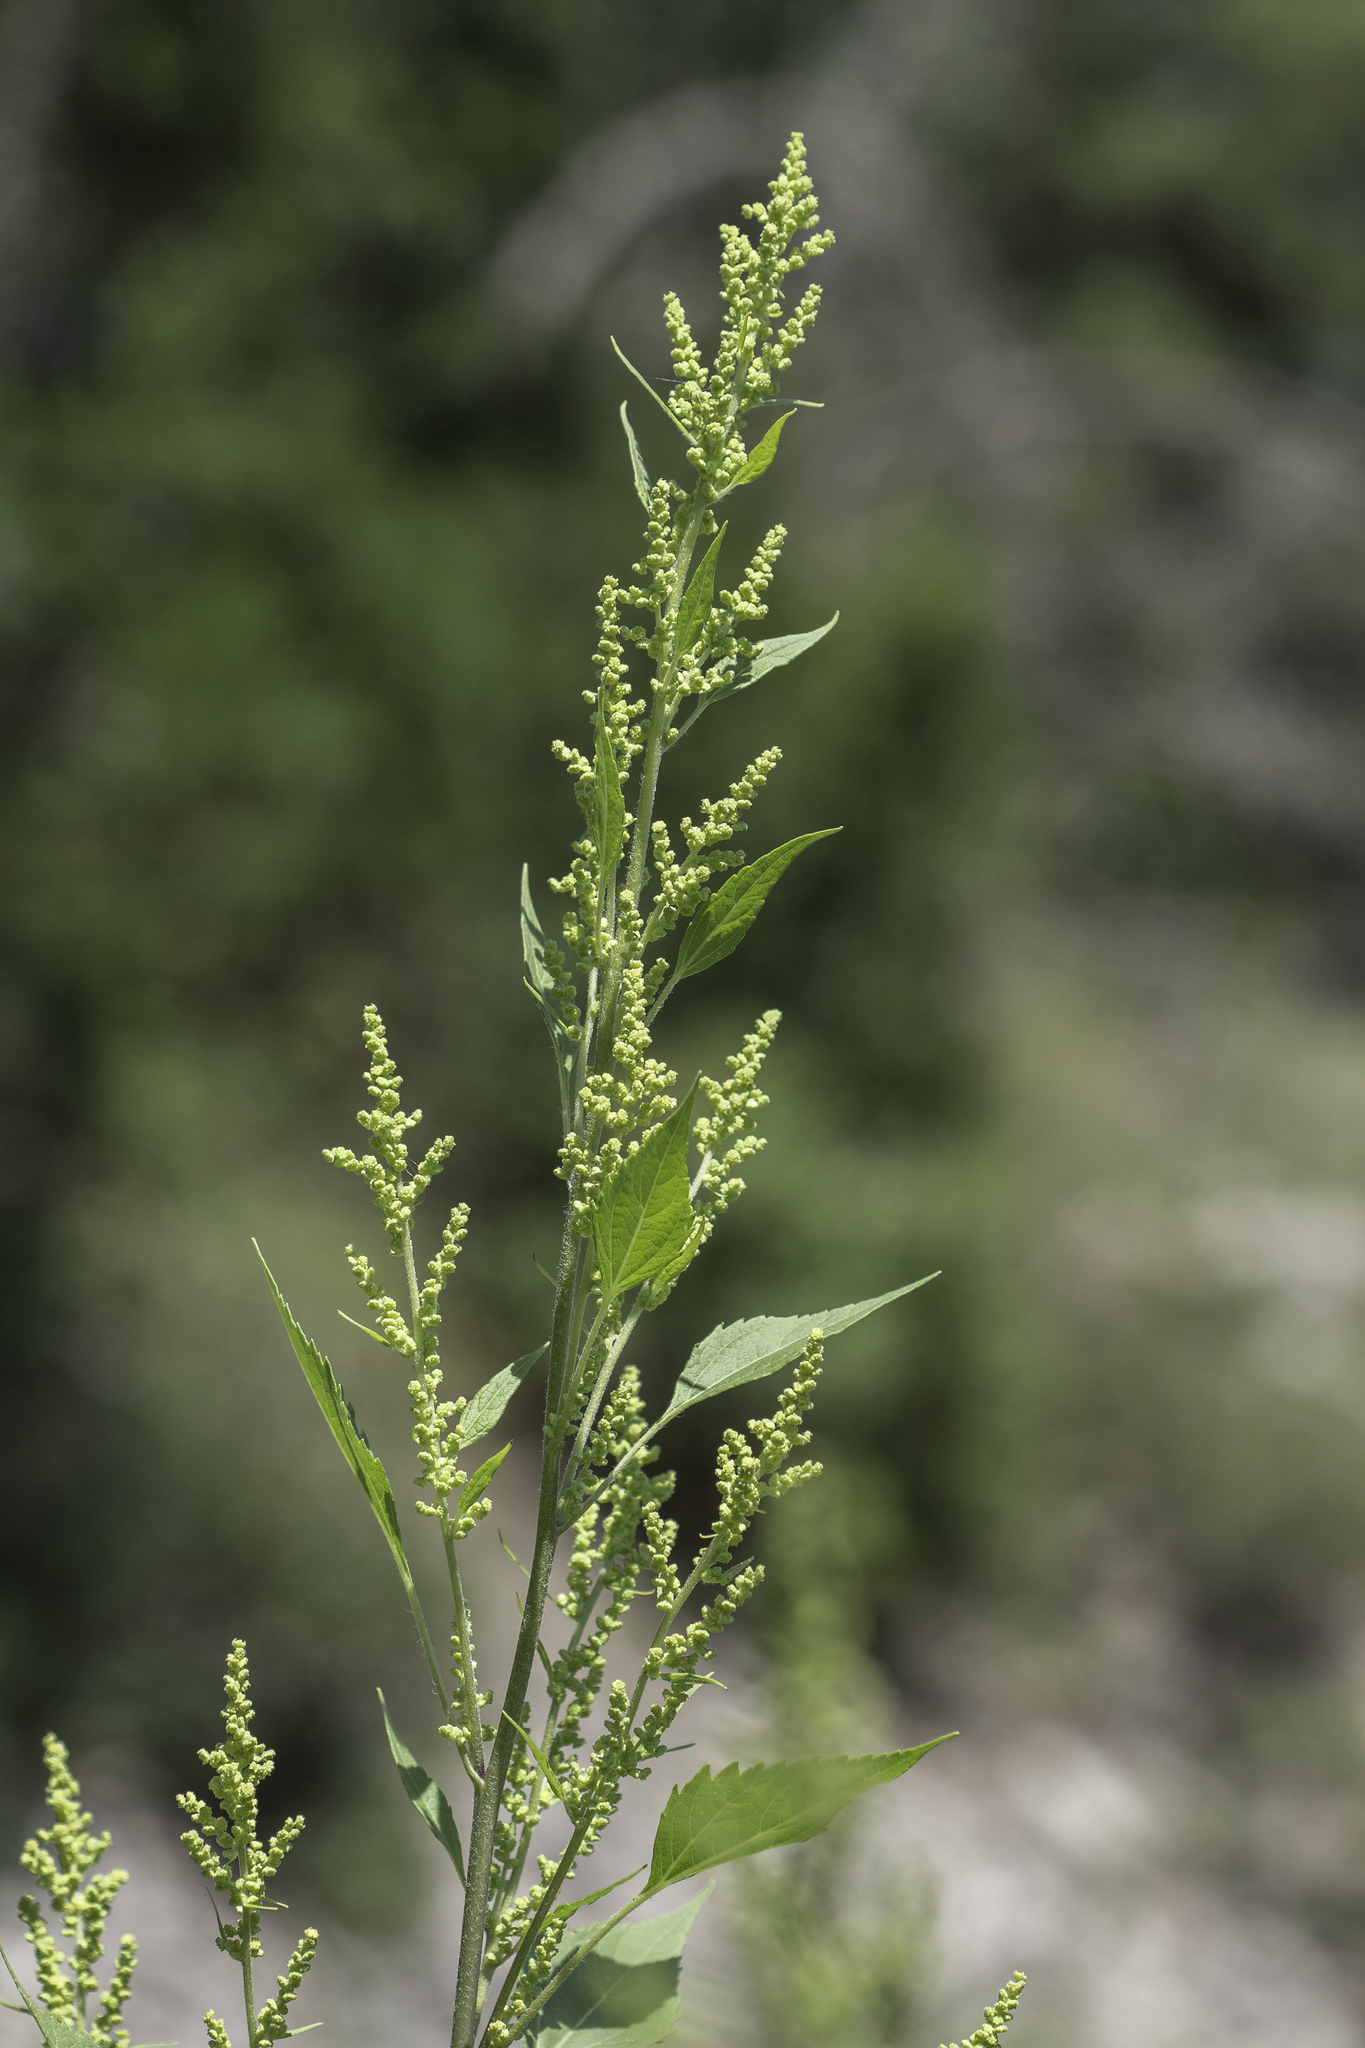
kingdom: Plantae
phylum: Tracheophyta
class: Magnoliopsida
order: Asterales
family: Asteraceae
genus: Cyclachaena
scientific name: Cyclachaena xanthiifolia
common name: Giant sumpweed
